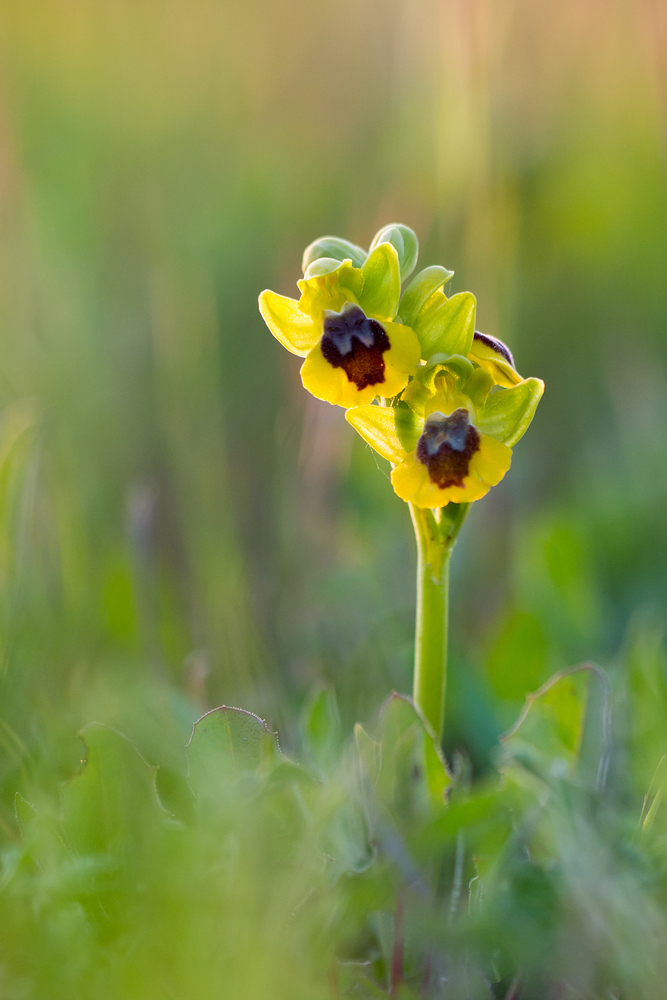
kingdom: Plantae
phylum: Tracheophyta
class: Liliopsida
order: Asparagales
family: Orchidaceae
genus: Ophrys
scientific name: Ophrys lutea
